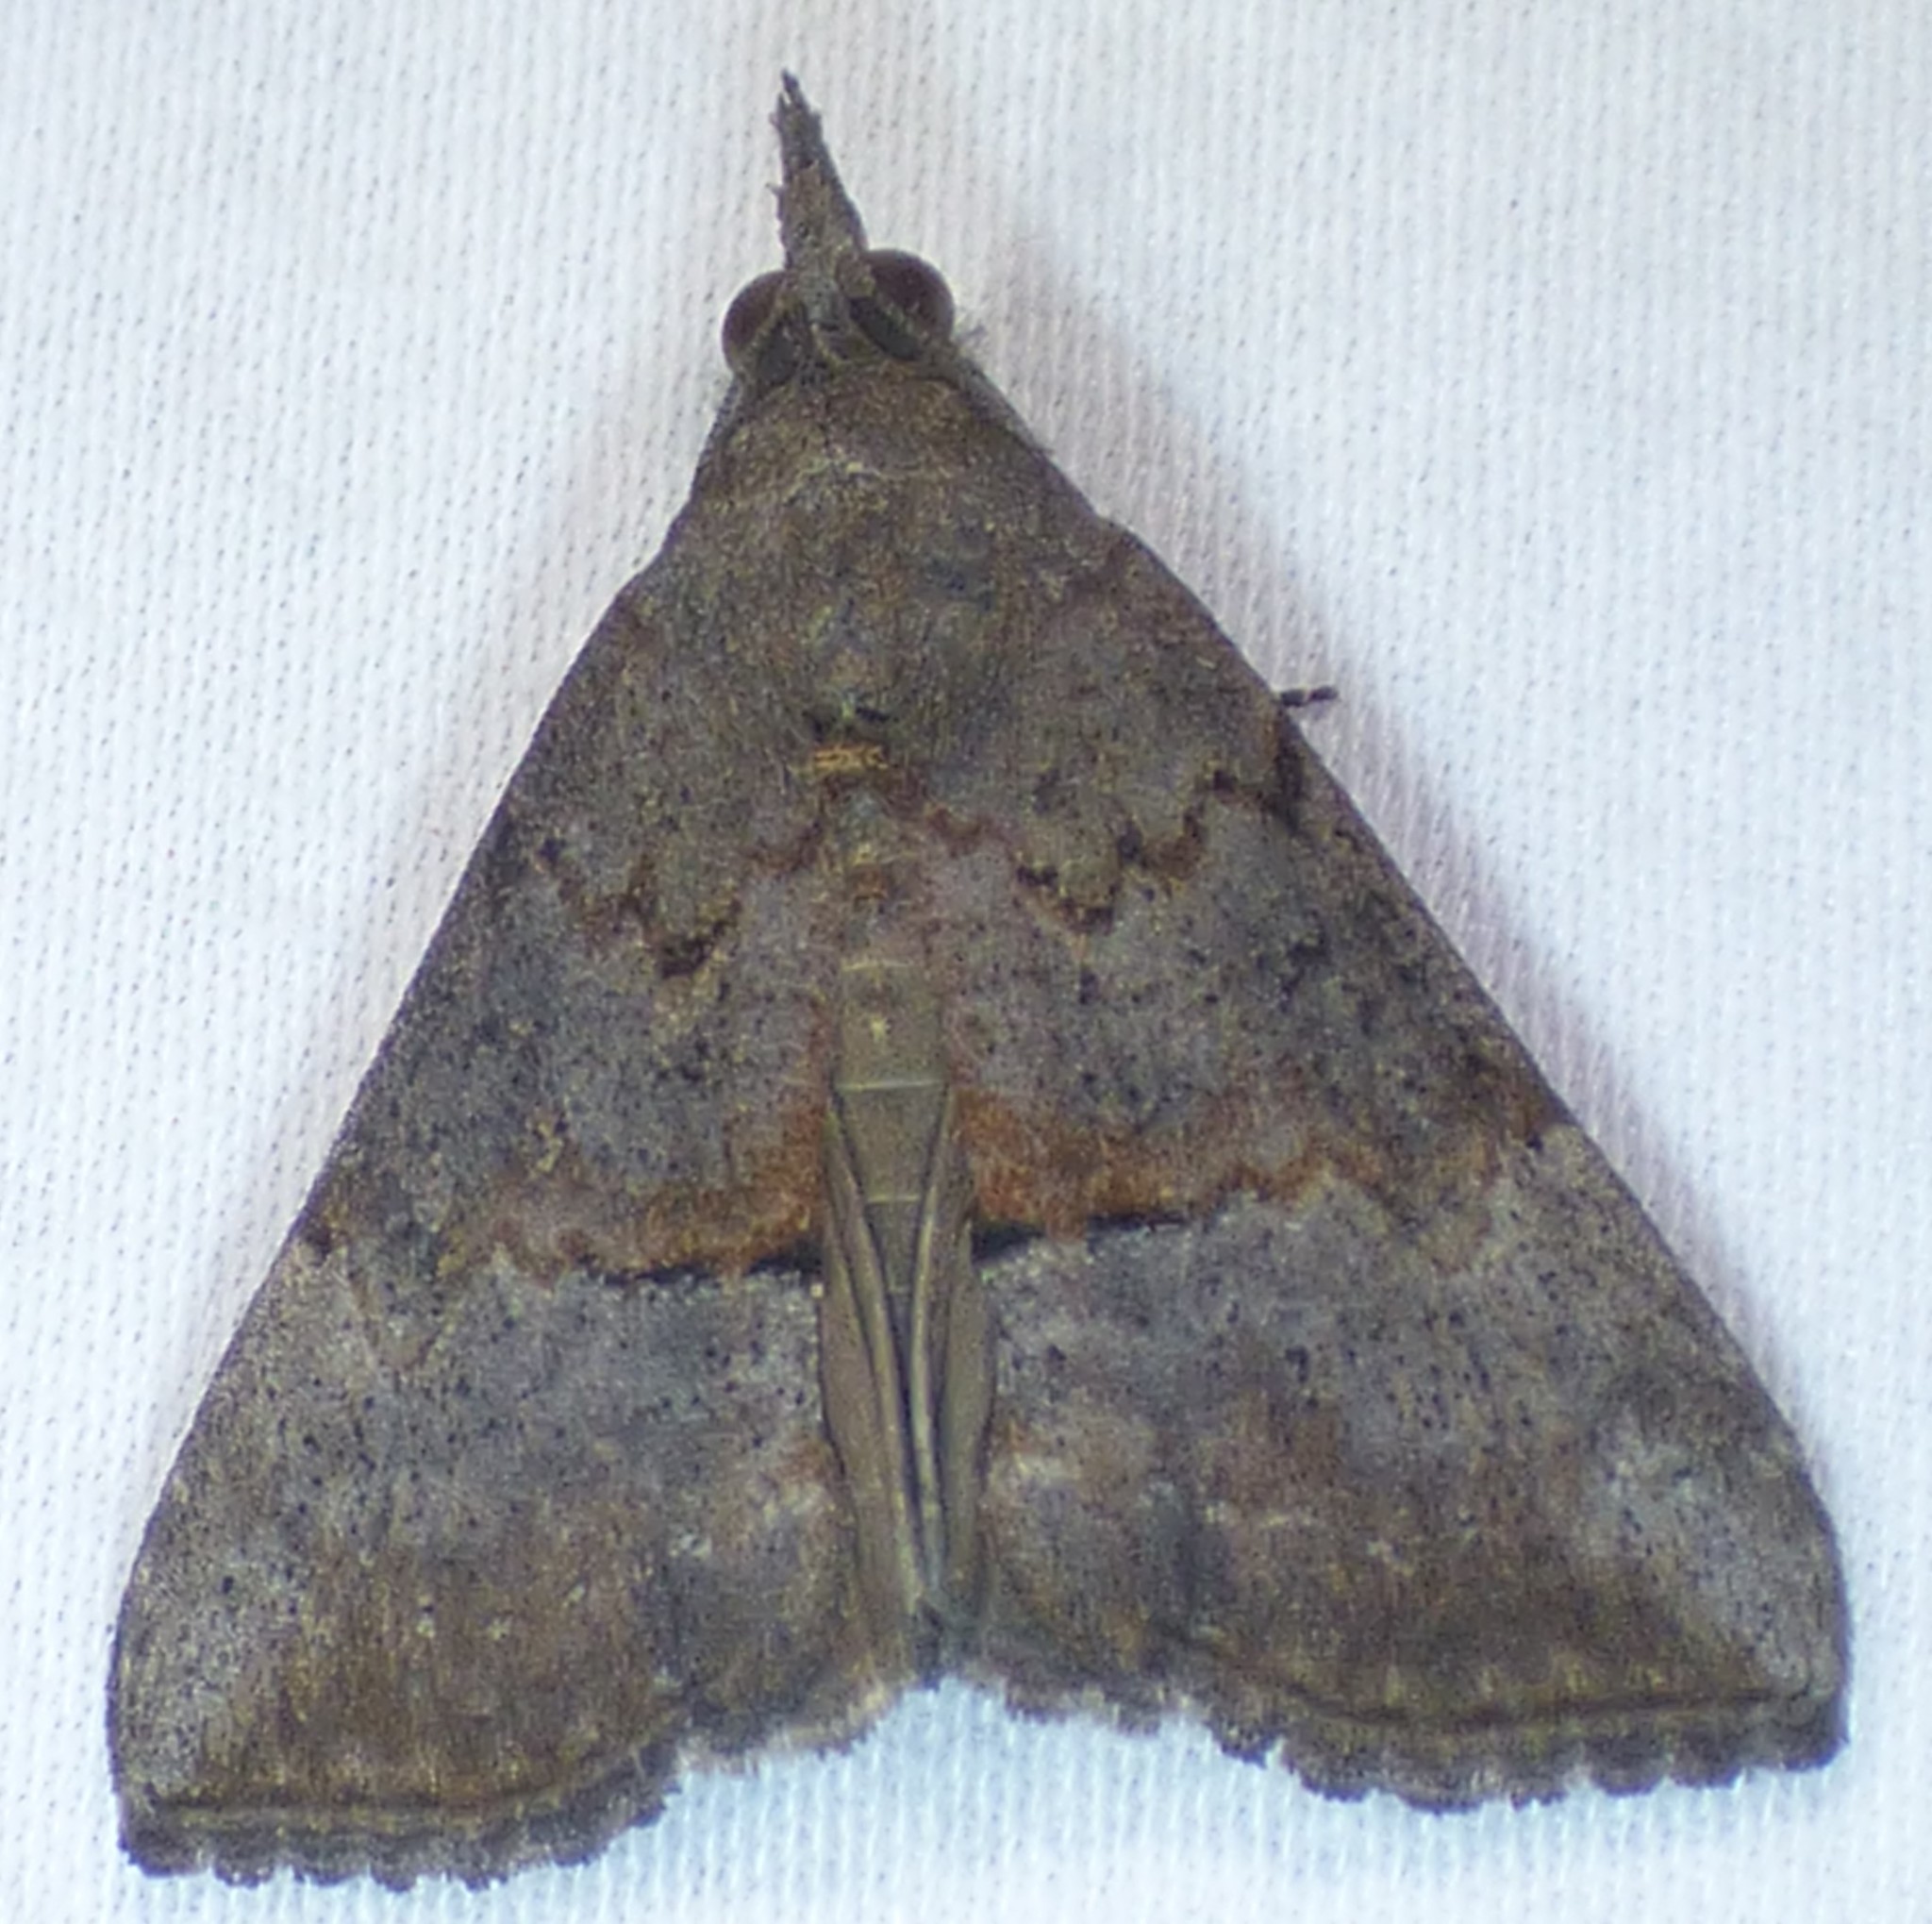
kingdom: Animalia
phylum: Arthropoda
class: Insecta
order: Lepidoptera
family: Erebidae
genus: Hypena
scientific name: Hypena scabra
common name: Green cloverworm
